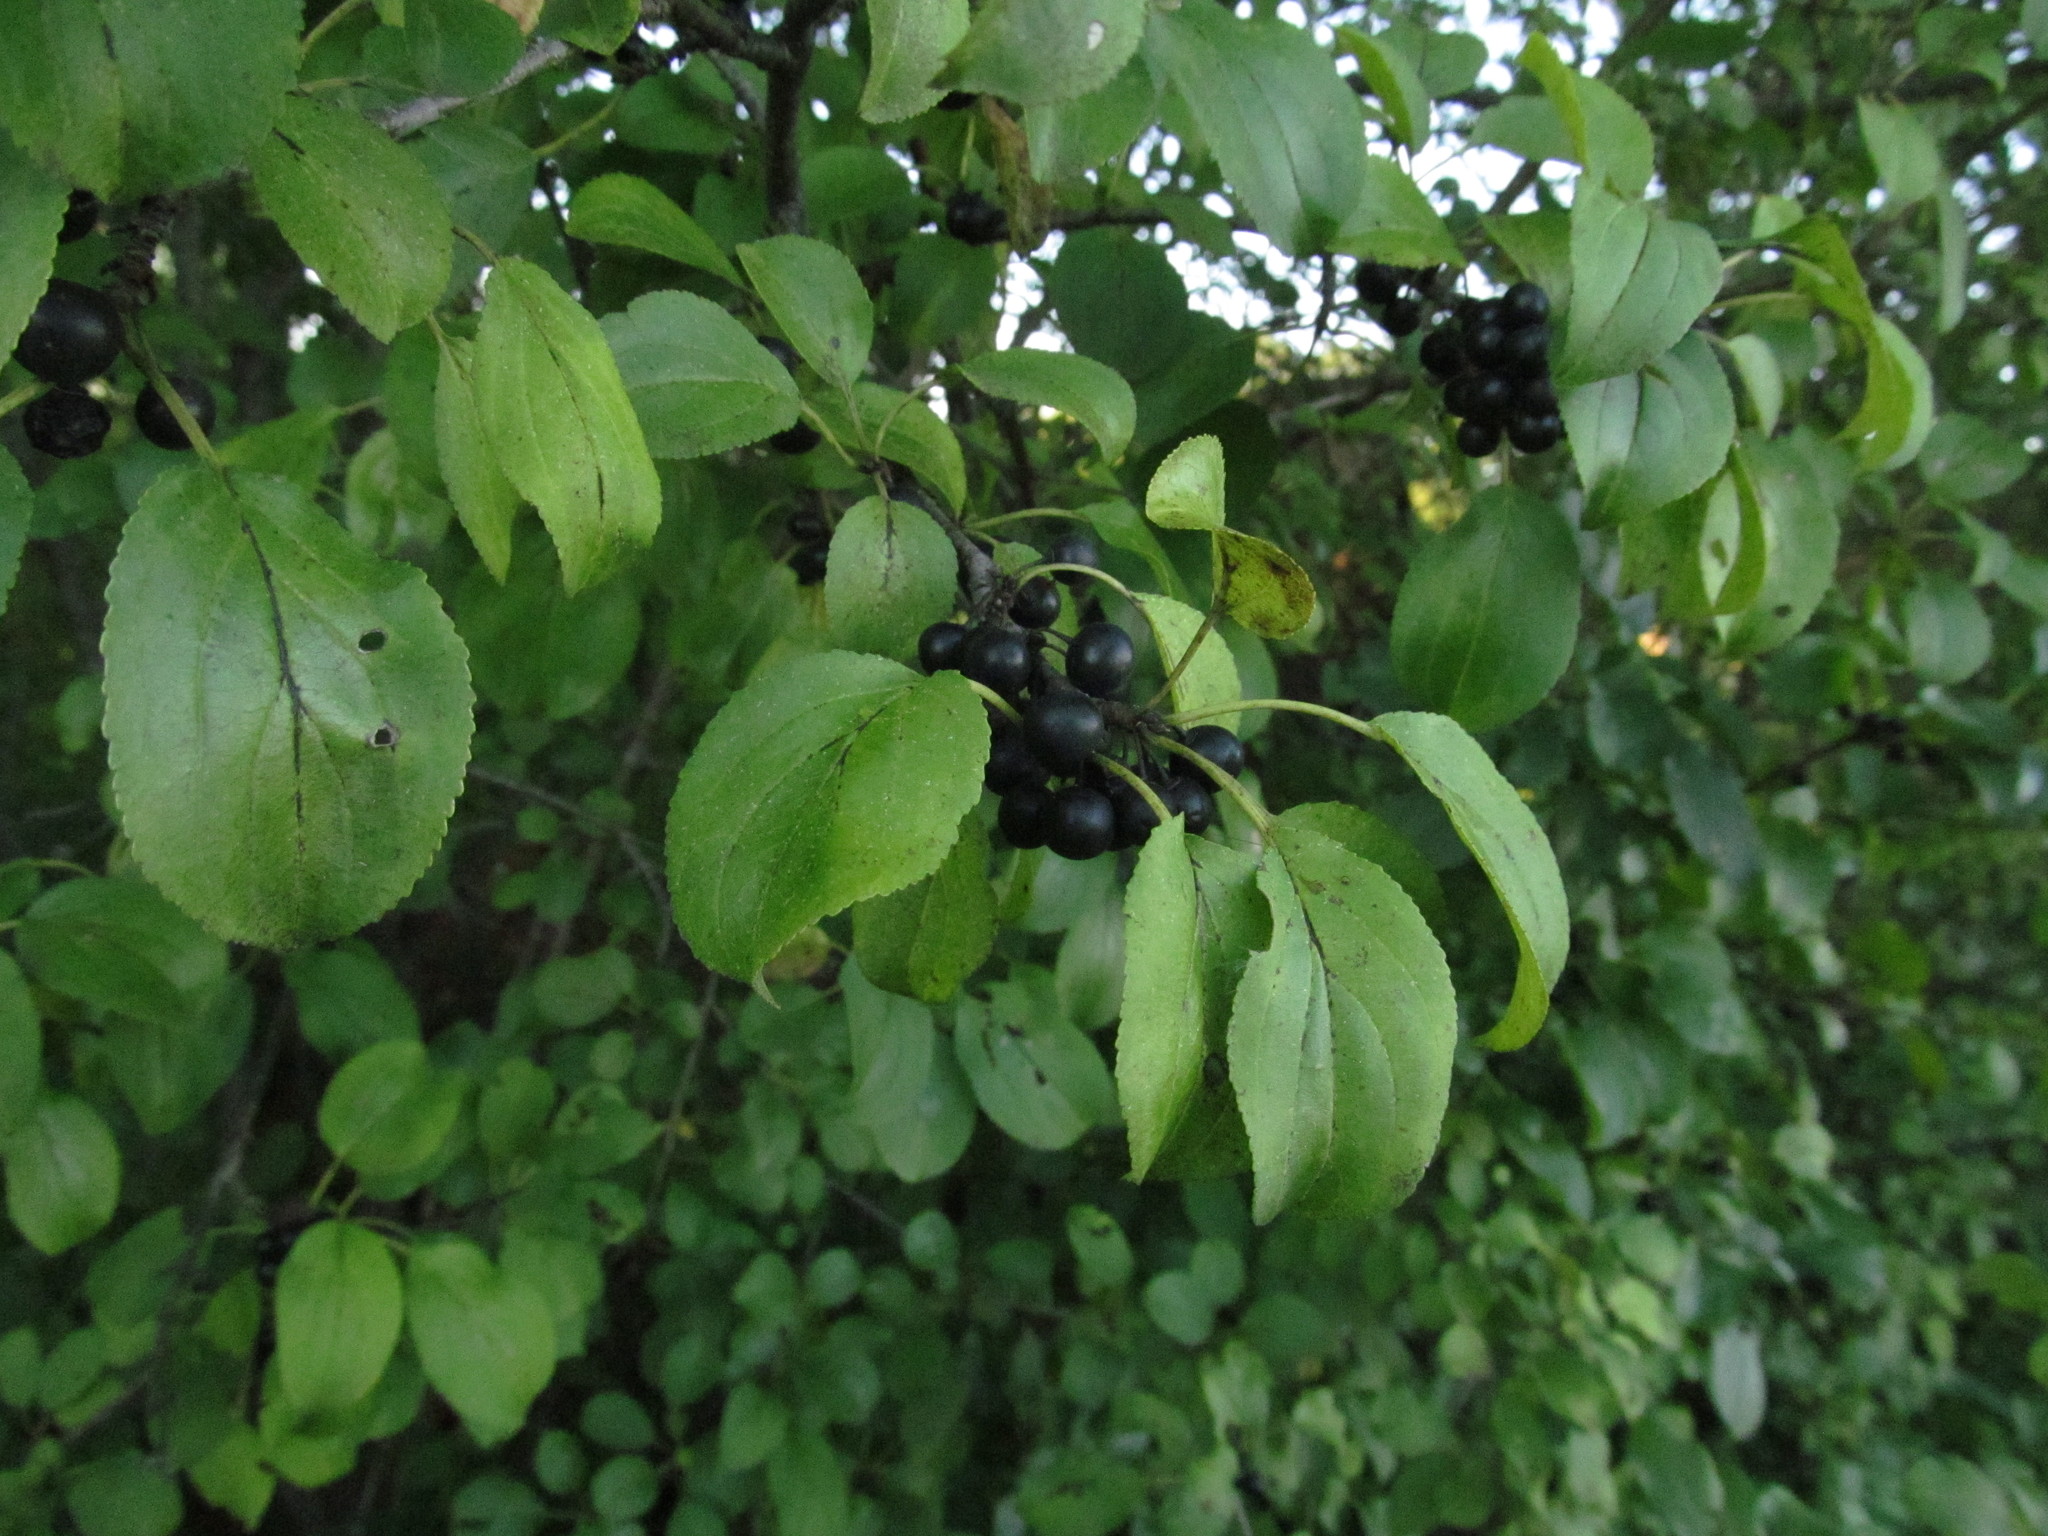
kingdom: Plantae
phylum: Tracheophyta
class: Magnoliopsida
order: Rosales
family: Rhamnaceae
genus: Rhamnus
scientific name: Rhamnus cathartica
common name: Common buckthorn
